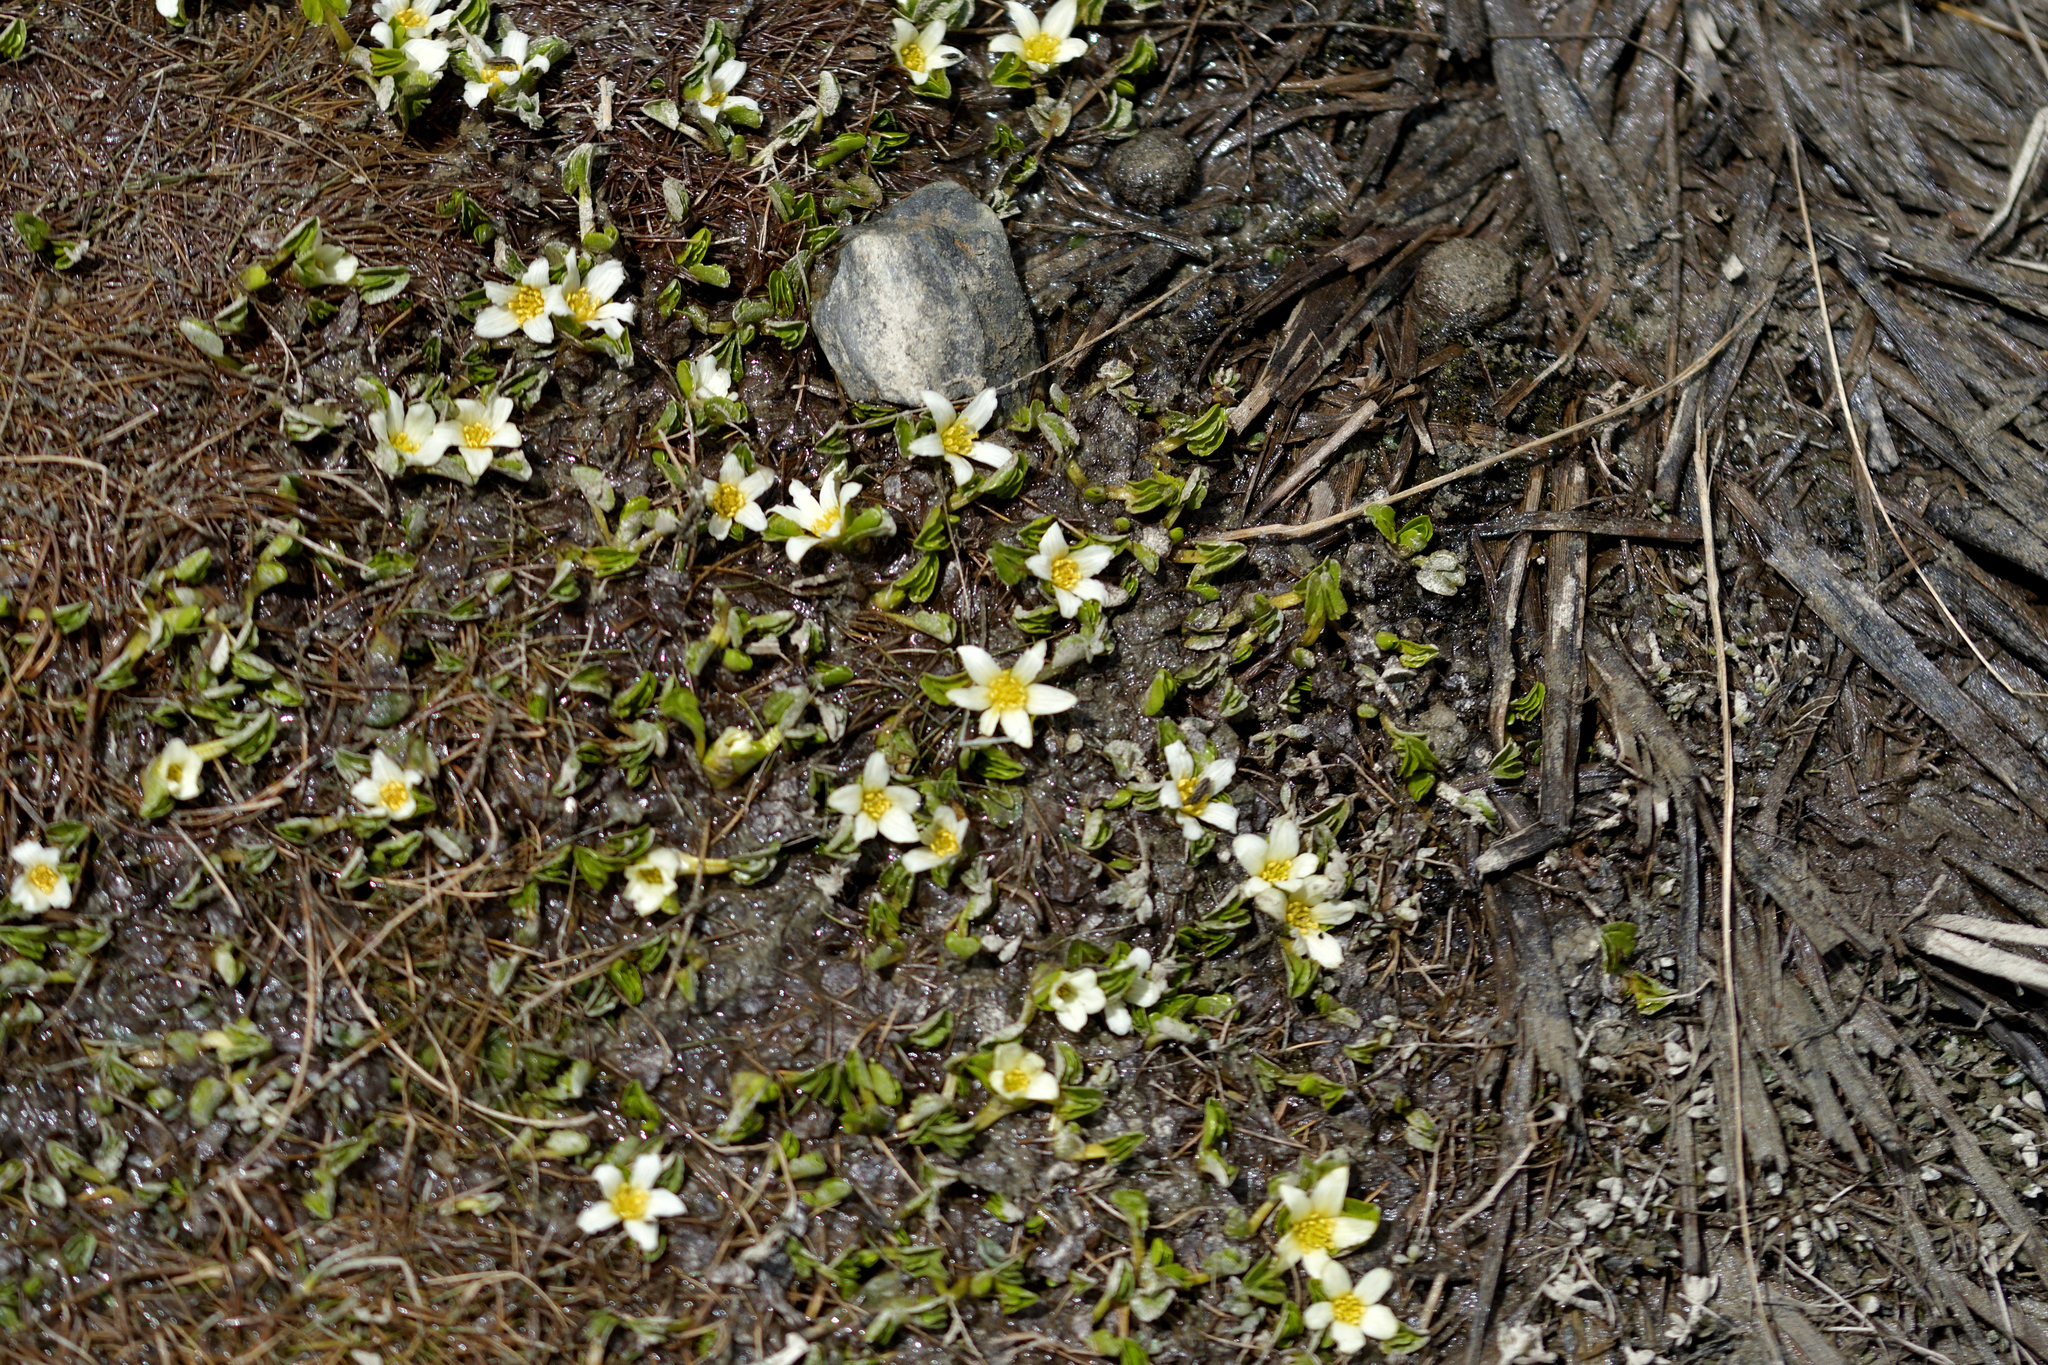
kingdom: Plantae
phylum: Tracheophyta
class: Magnoliopsida
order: Ranunculales
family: Ranunculaceae
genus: Caltha
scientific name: Caltha obtusa
